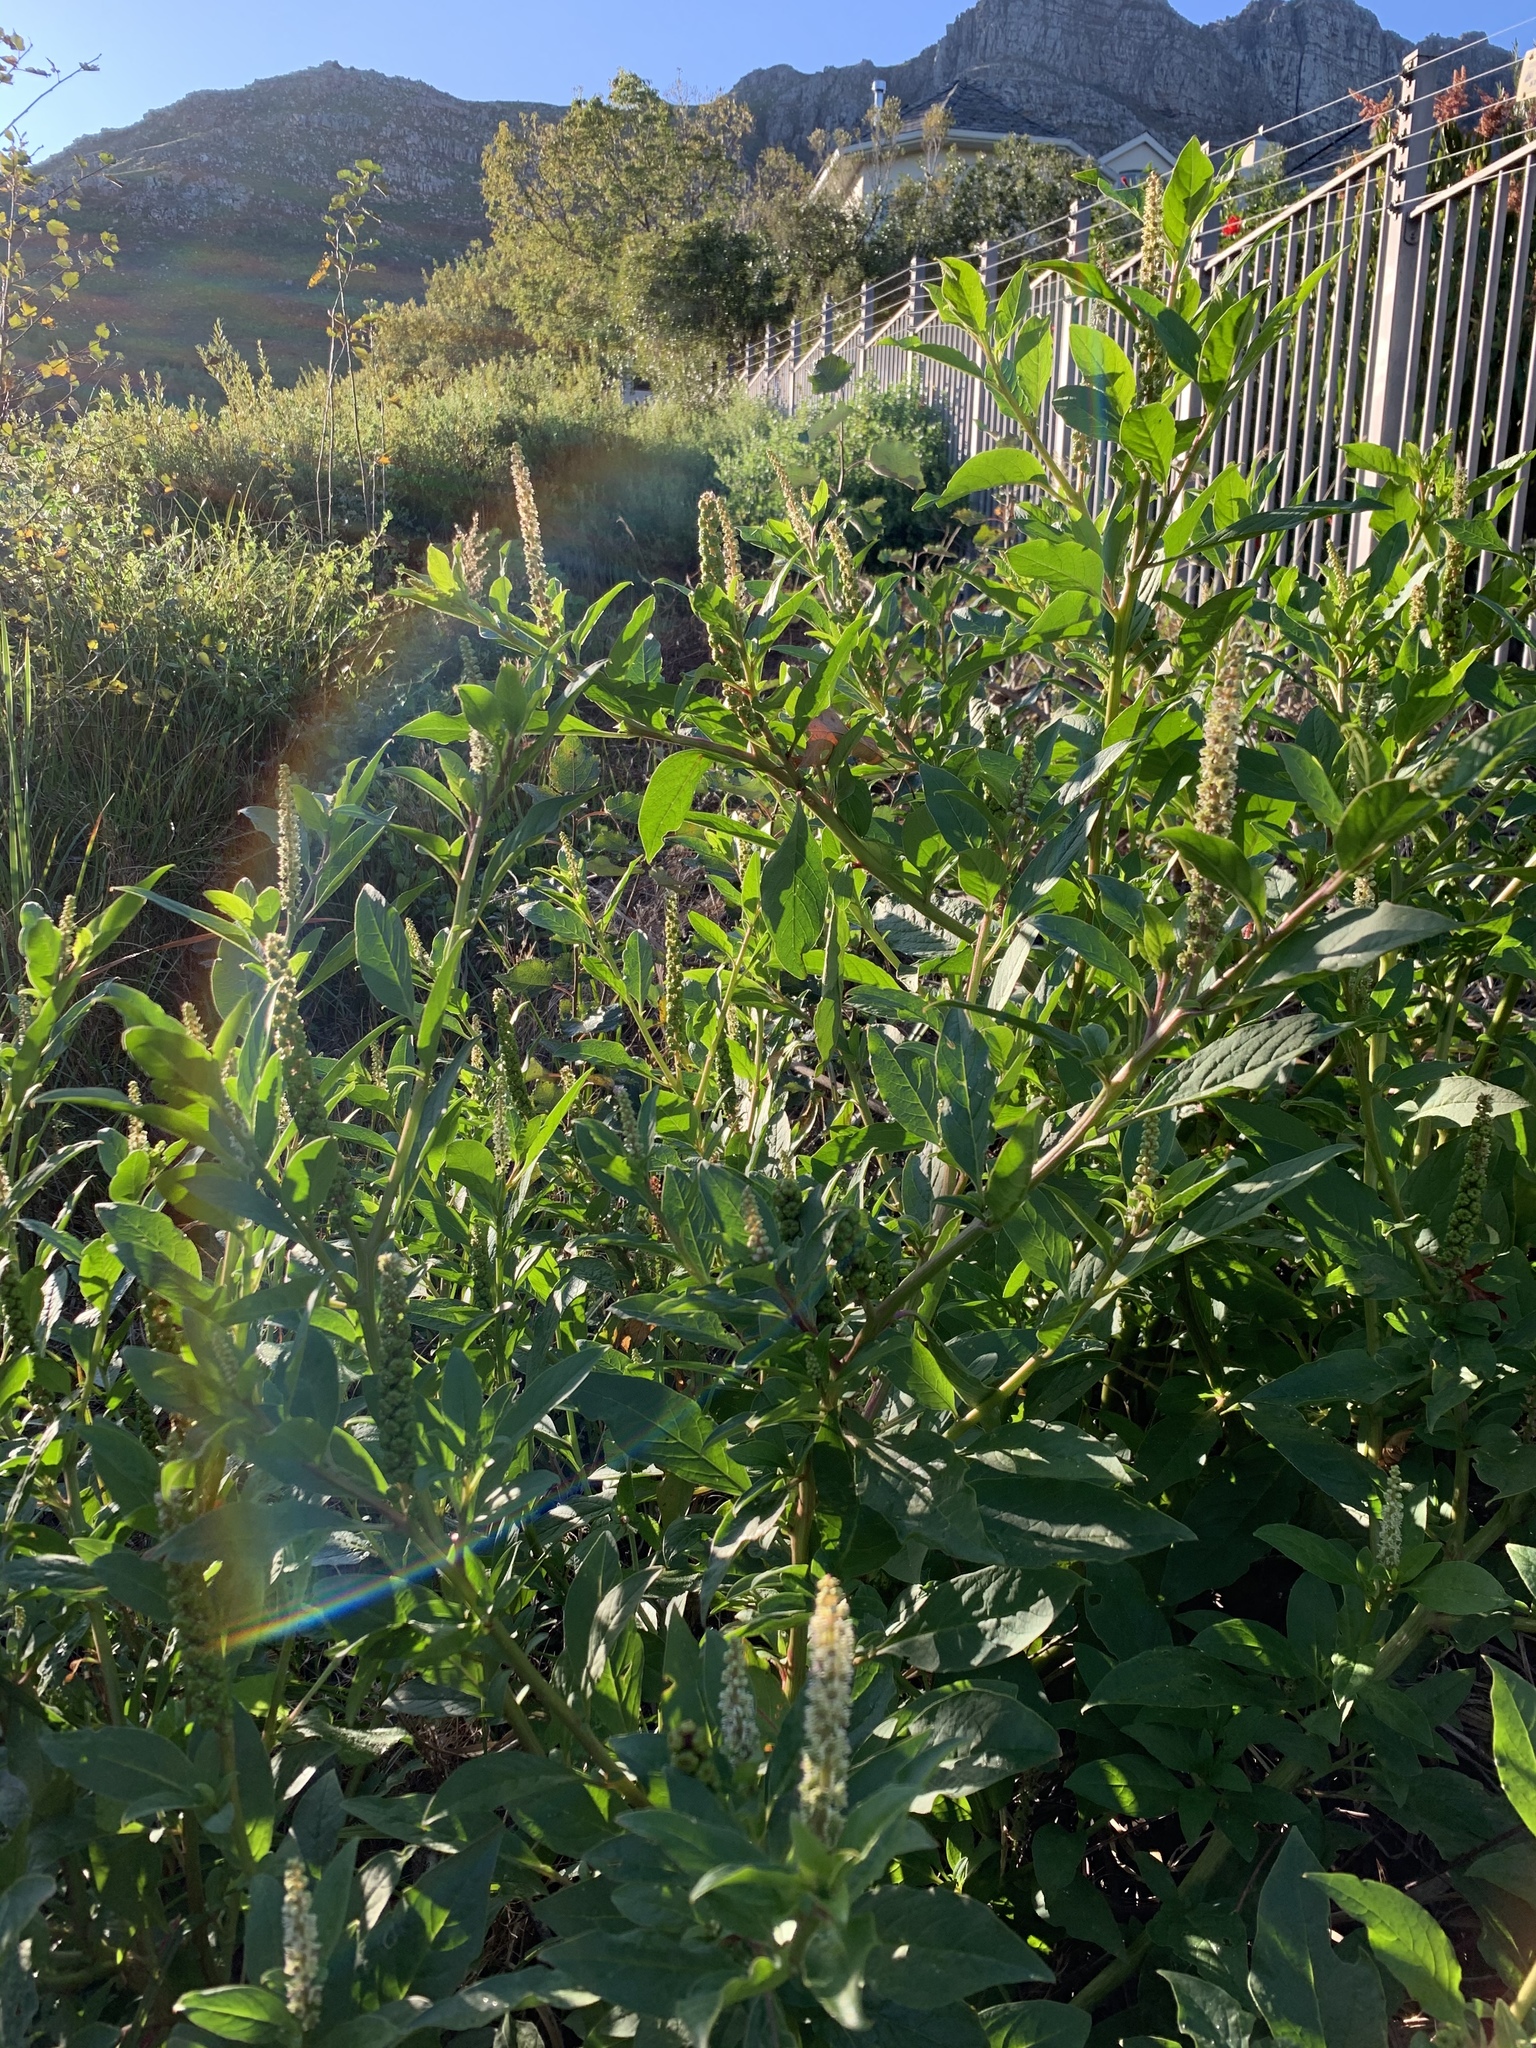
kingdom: Plantae
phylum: Tracheophyta
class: Magnoliopsida
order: Caryophyllales
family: Phytolaccaceae
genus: Phytolacca
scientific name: Phytolacca icosandra
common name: Button pokeweed
